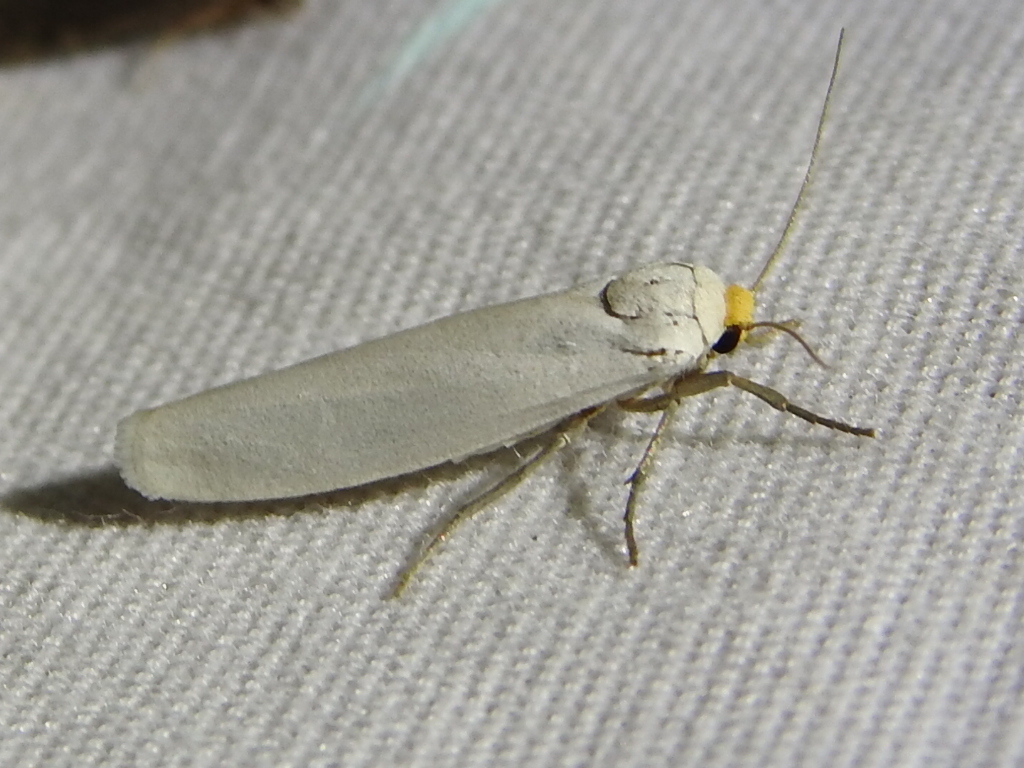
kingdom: Animalia
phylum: Arthropoda
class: Insecta
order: Lepidoptera
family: Erebidae
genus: Crambidia
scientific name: Crambidia cephalica
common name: Yellow-headed lichen moth
